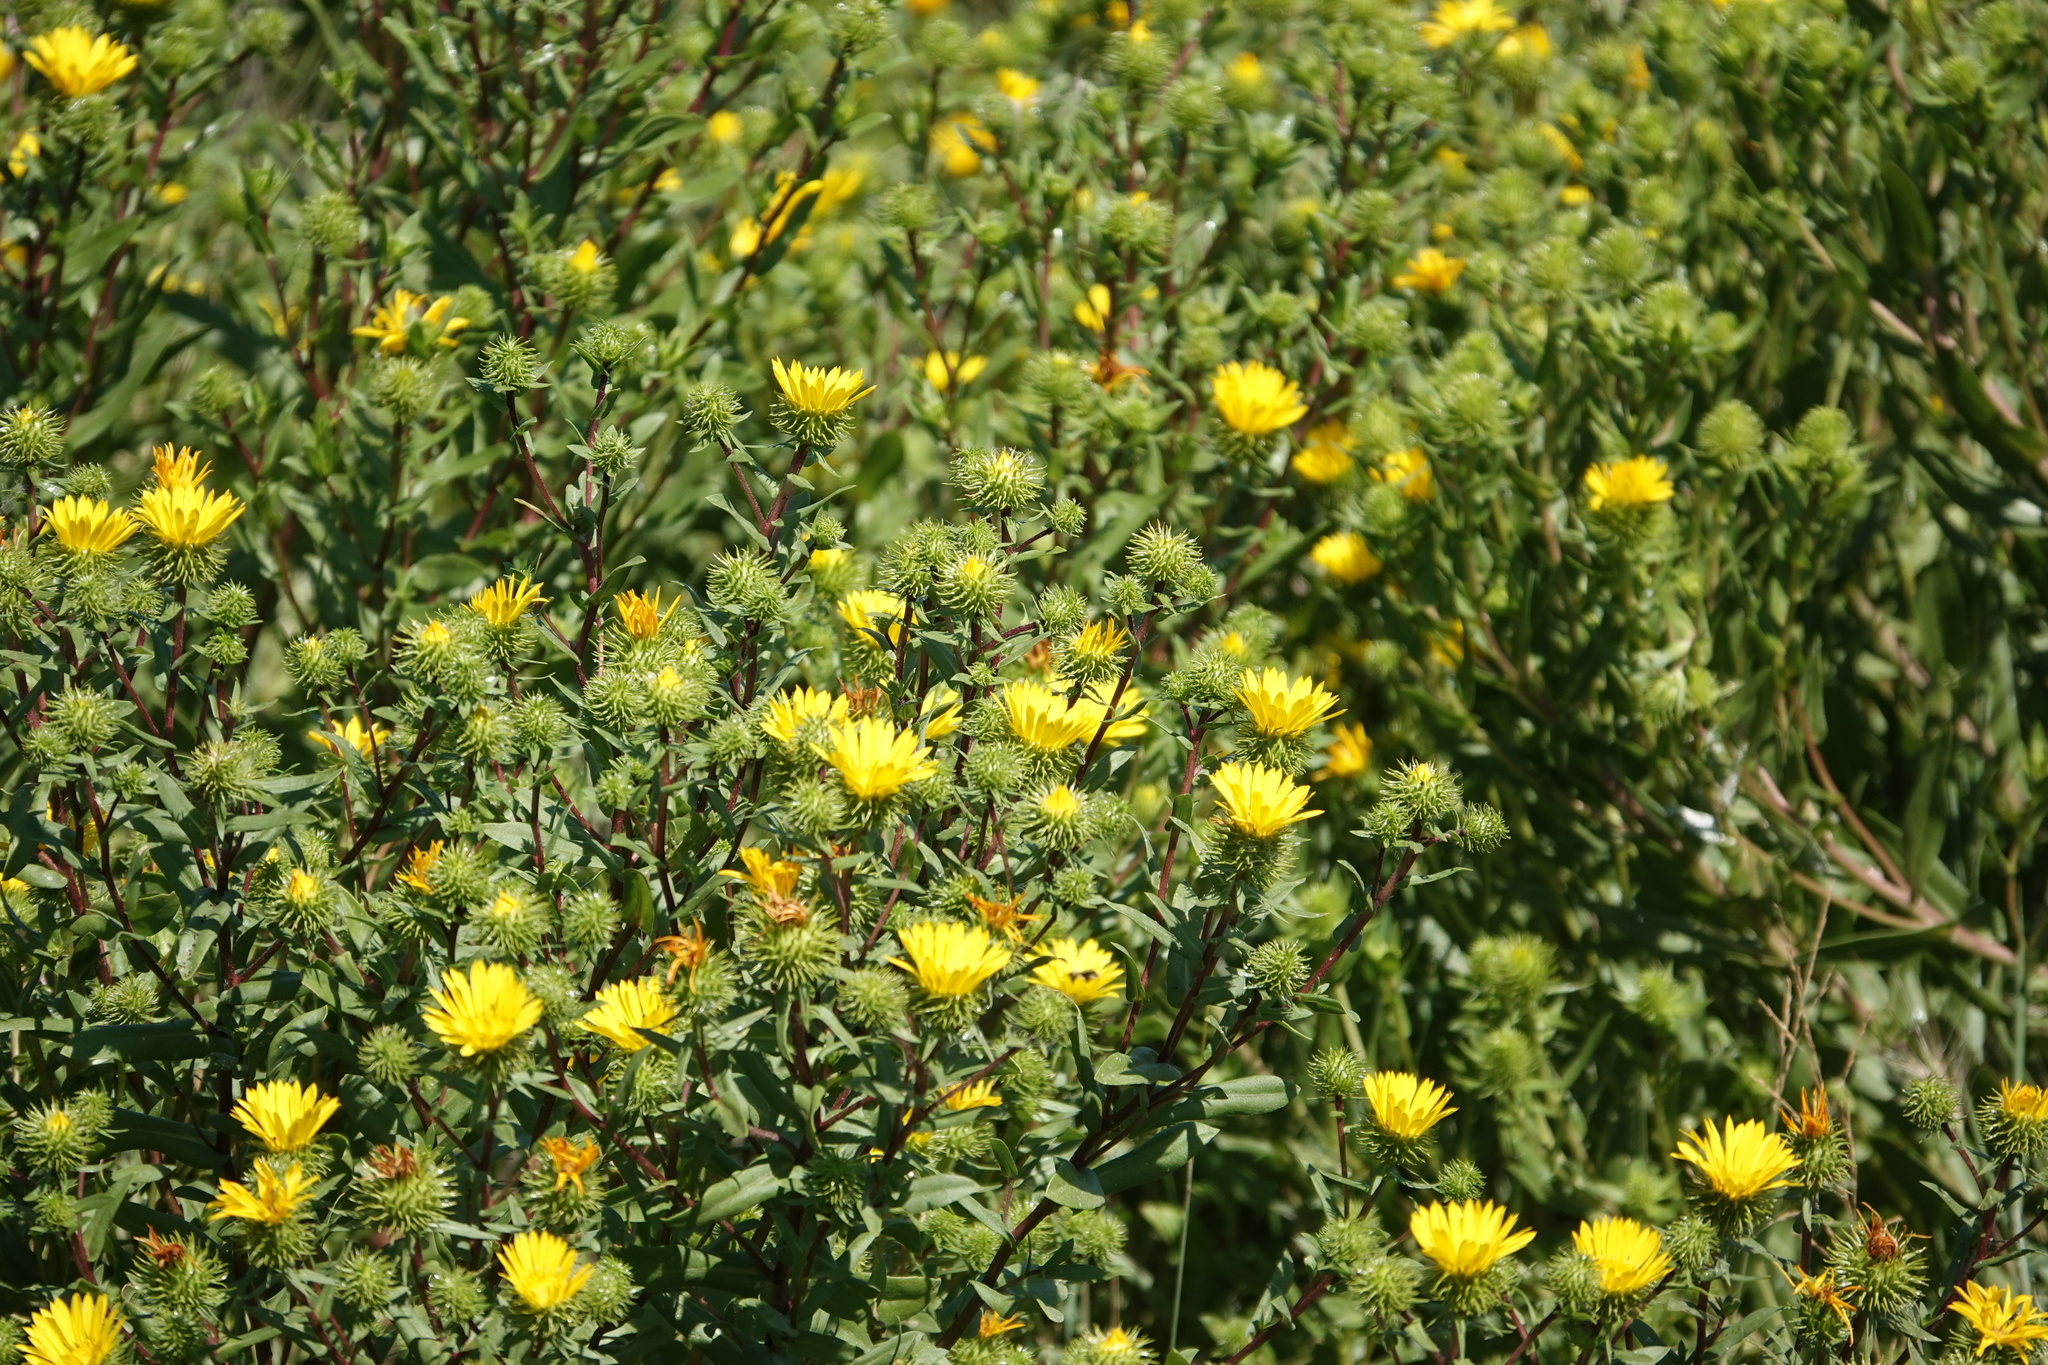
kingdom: Plantae
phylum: Tracheophyta
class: Magnoliopsida
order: Asterales
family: Asteraceae
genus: Grindelia
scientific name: Grindelia hirsutula
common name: Hairy gumweed
